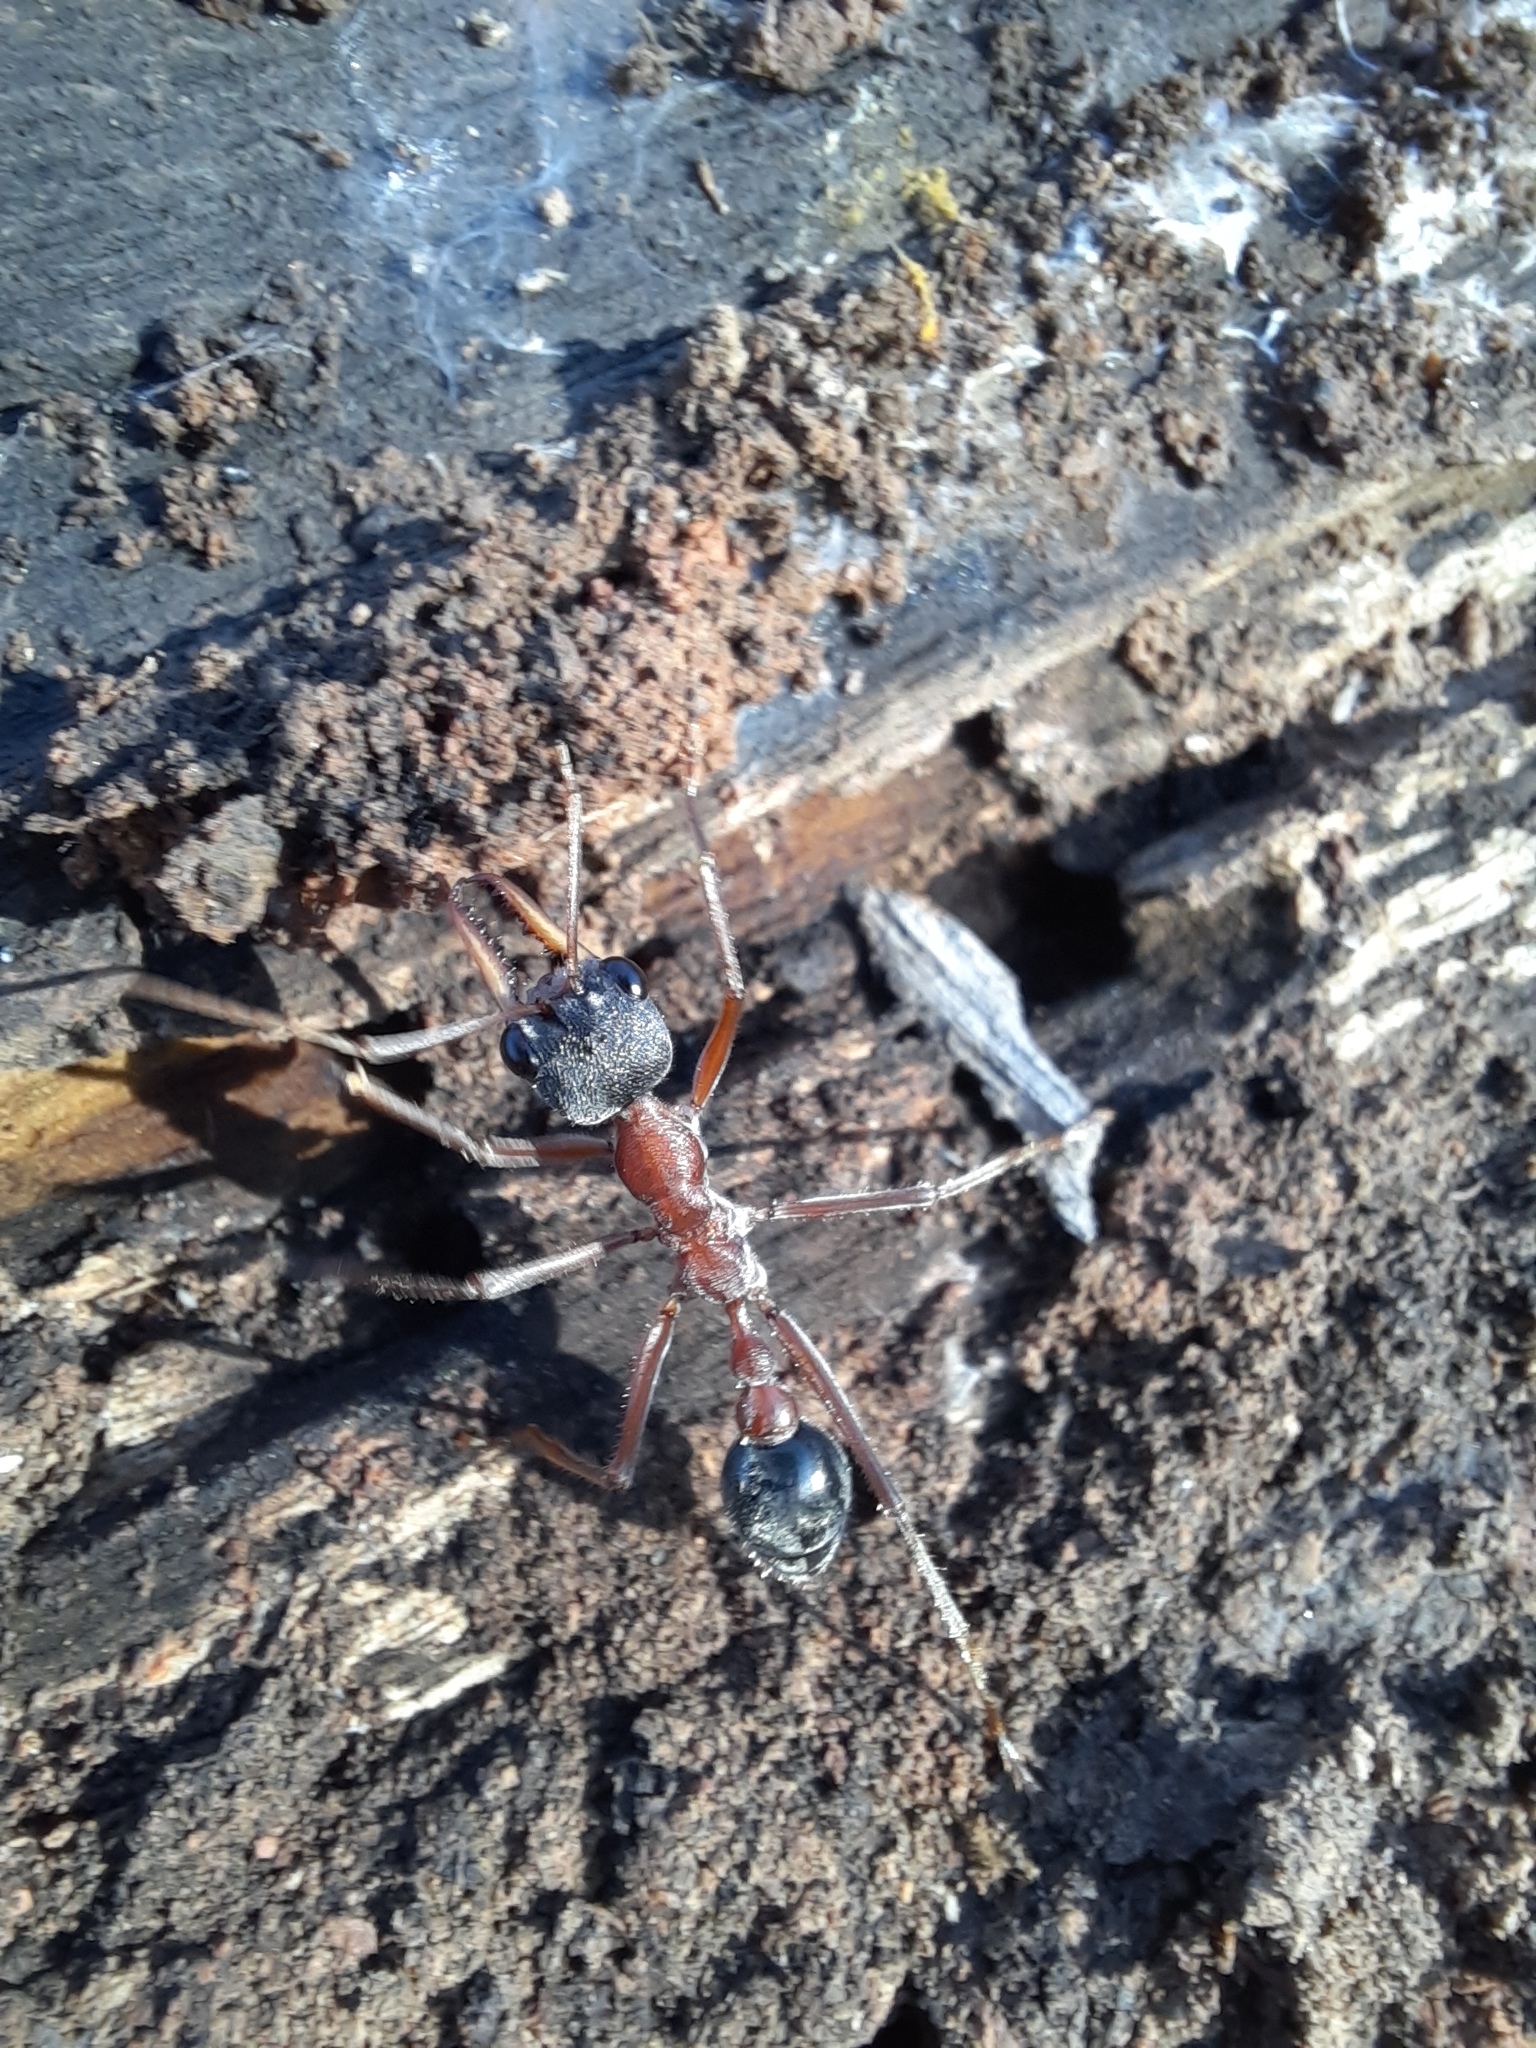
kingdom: Animalia
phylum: Arthropoda
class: Insecta
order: Hymenoptera
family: Formicidae
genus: Myrmecia
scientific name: Myrmecia nigriceps
